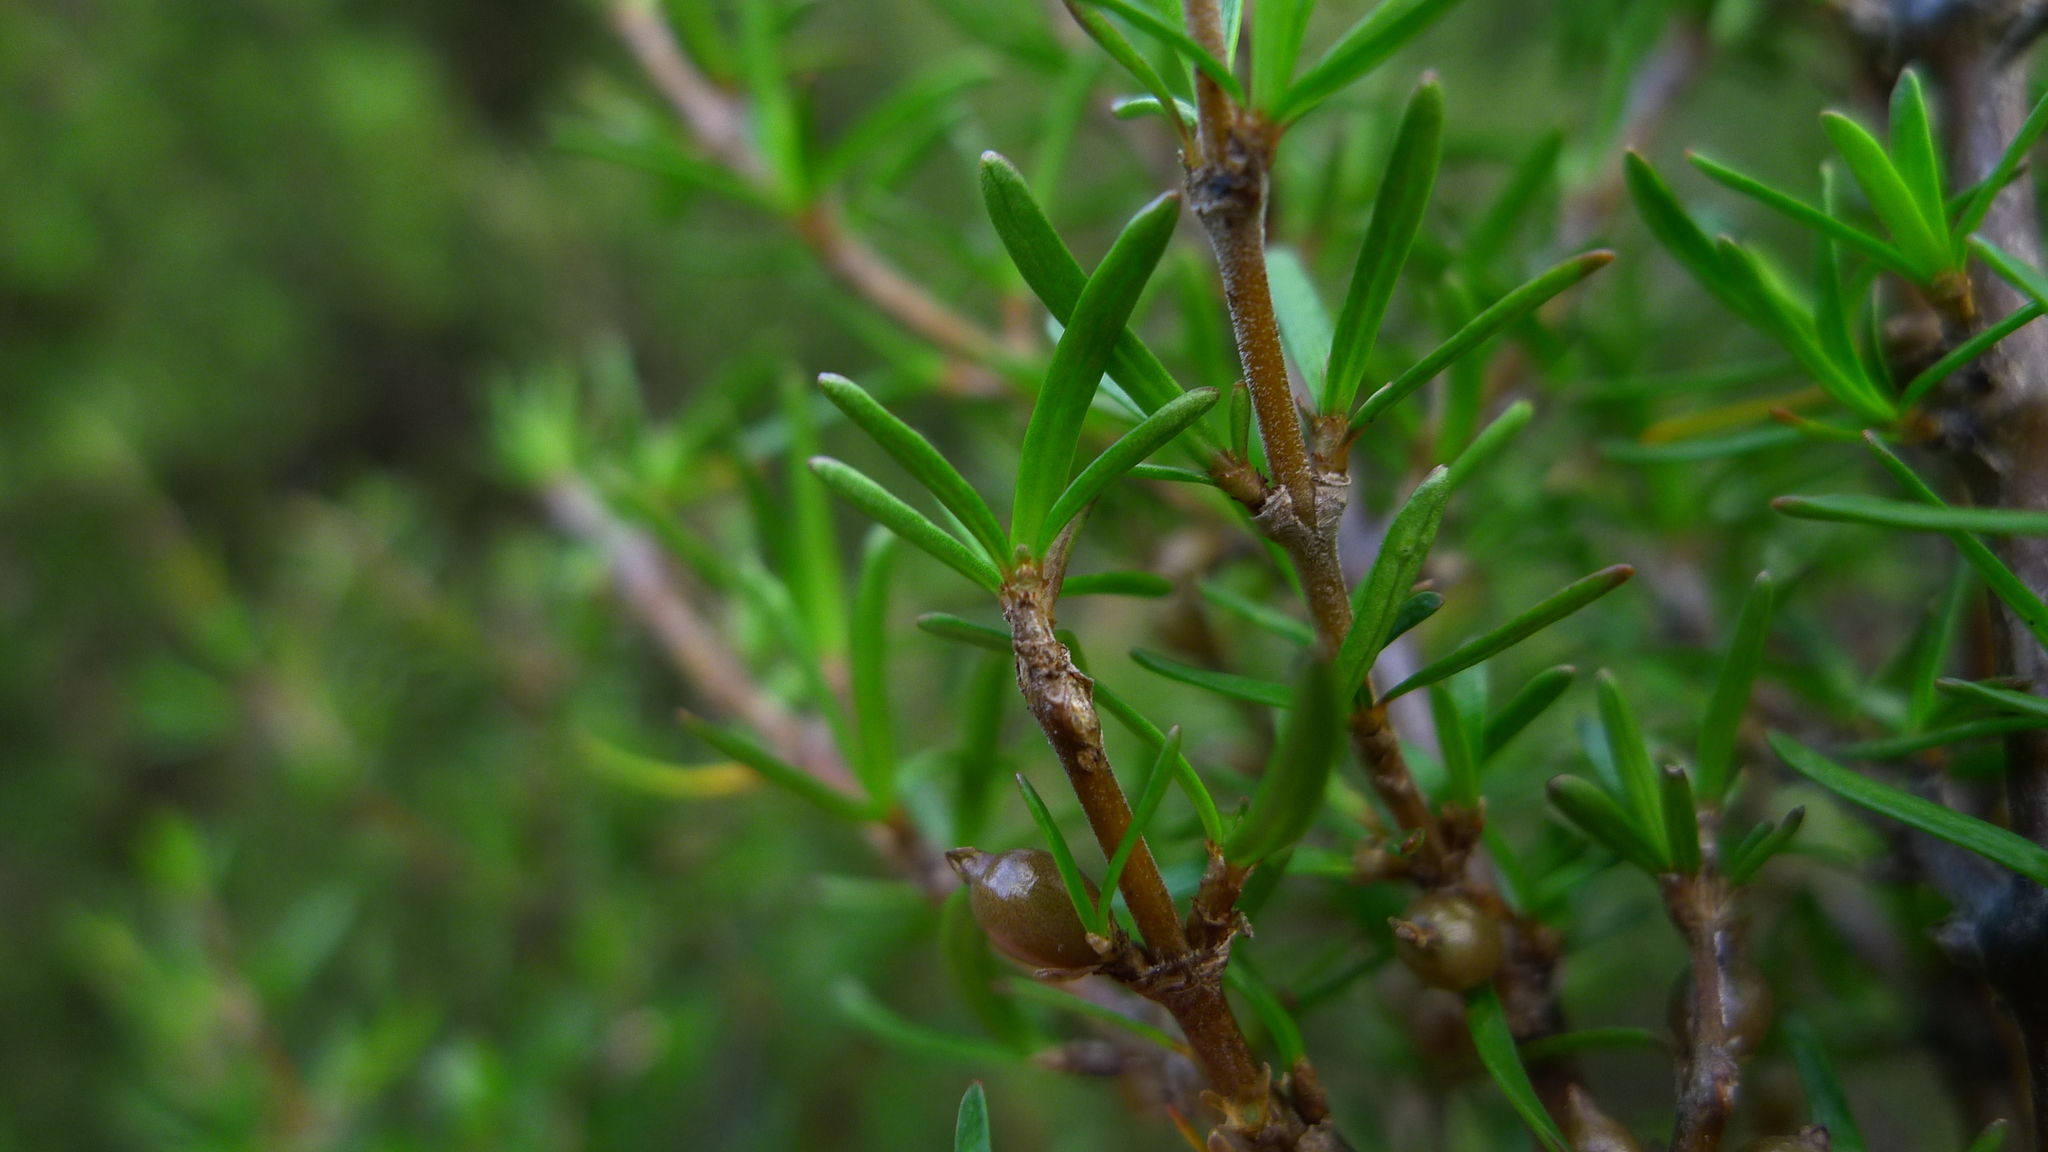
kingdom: Plantae
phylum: Tracheophyta
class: Magnoliopsida
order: Gentianales
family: Rubiaceae
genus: Coprosma
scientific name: Coprosma rugosa
